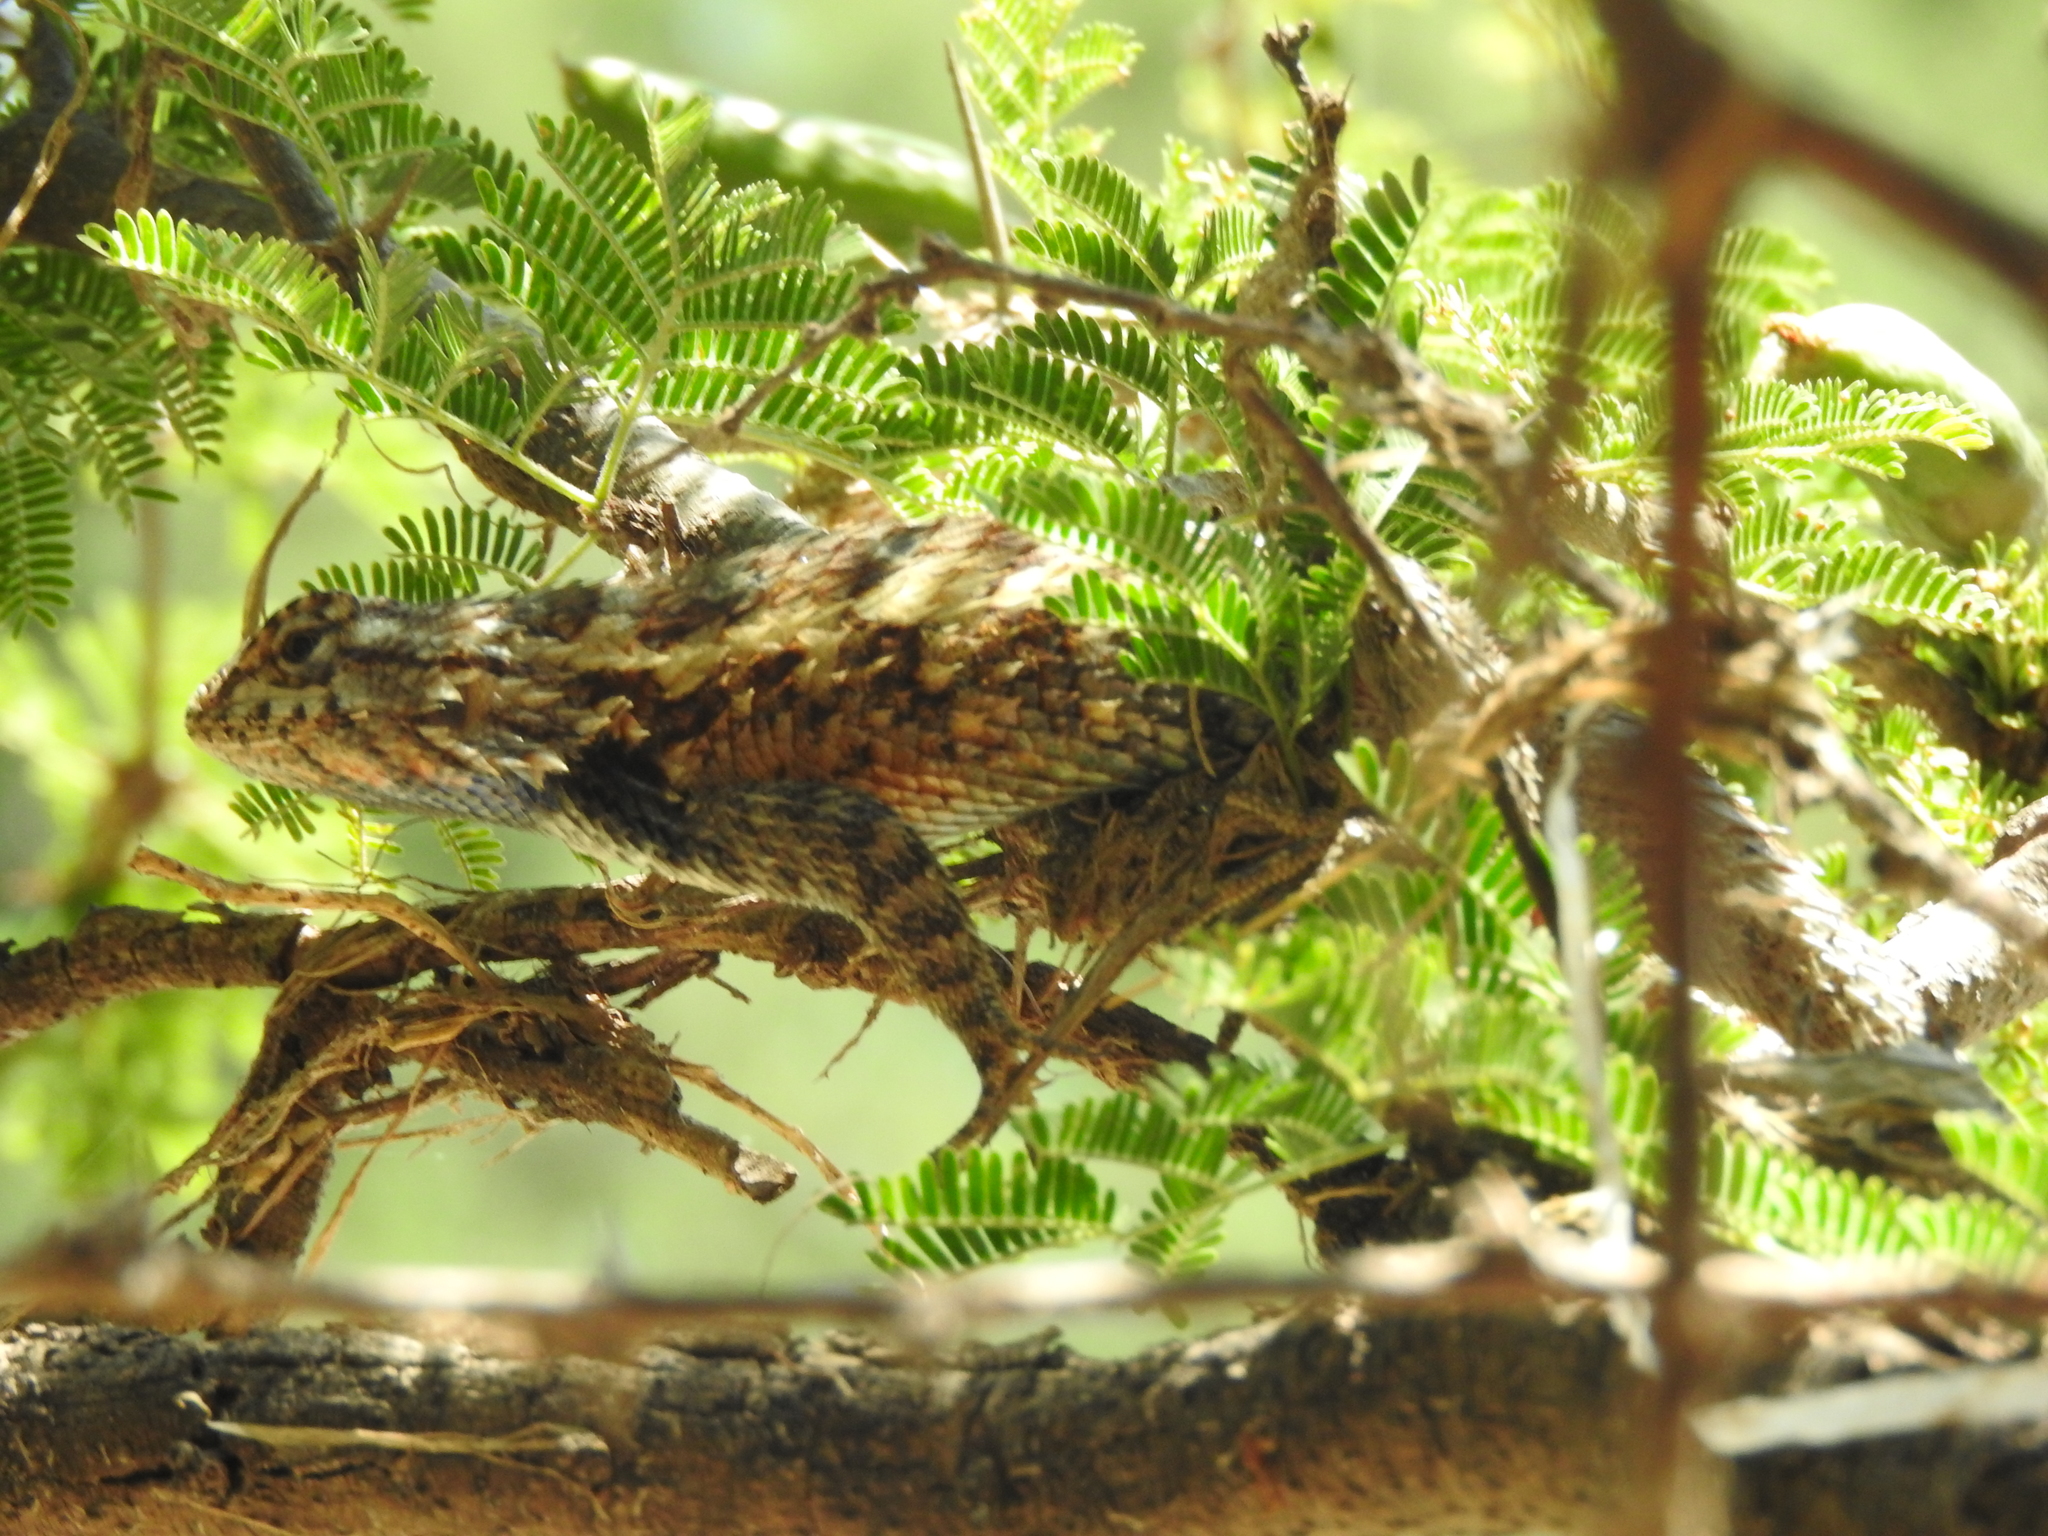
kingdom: Animalia
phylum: Chordata
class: Squamata
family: Phrynosomatidae
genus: Sceloporus
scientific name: Sceloporus spinosus
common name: Blue-spotted spiny lizard [caeruleopunctatus]
